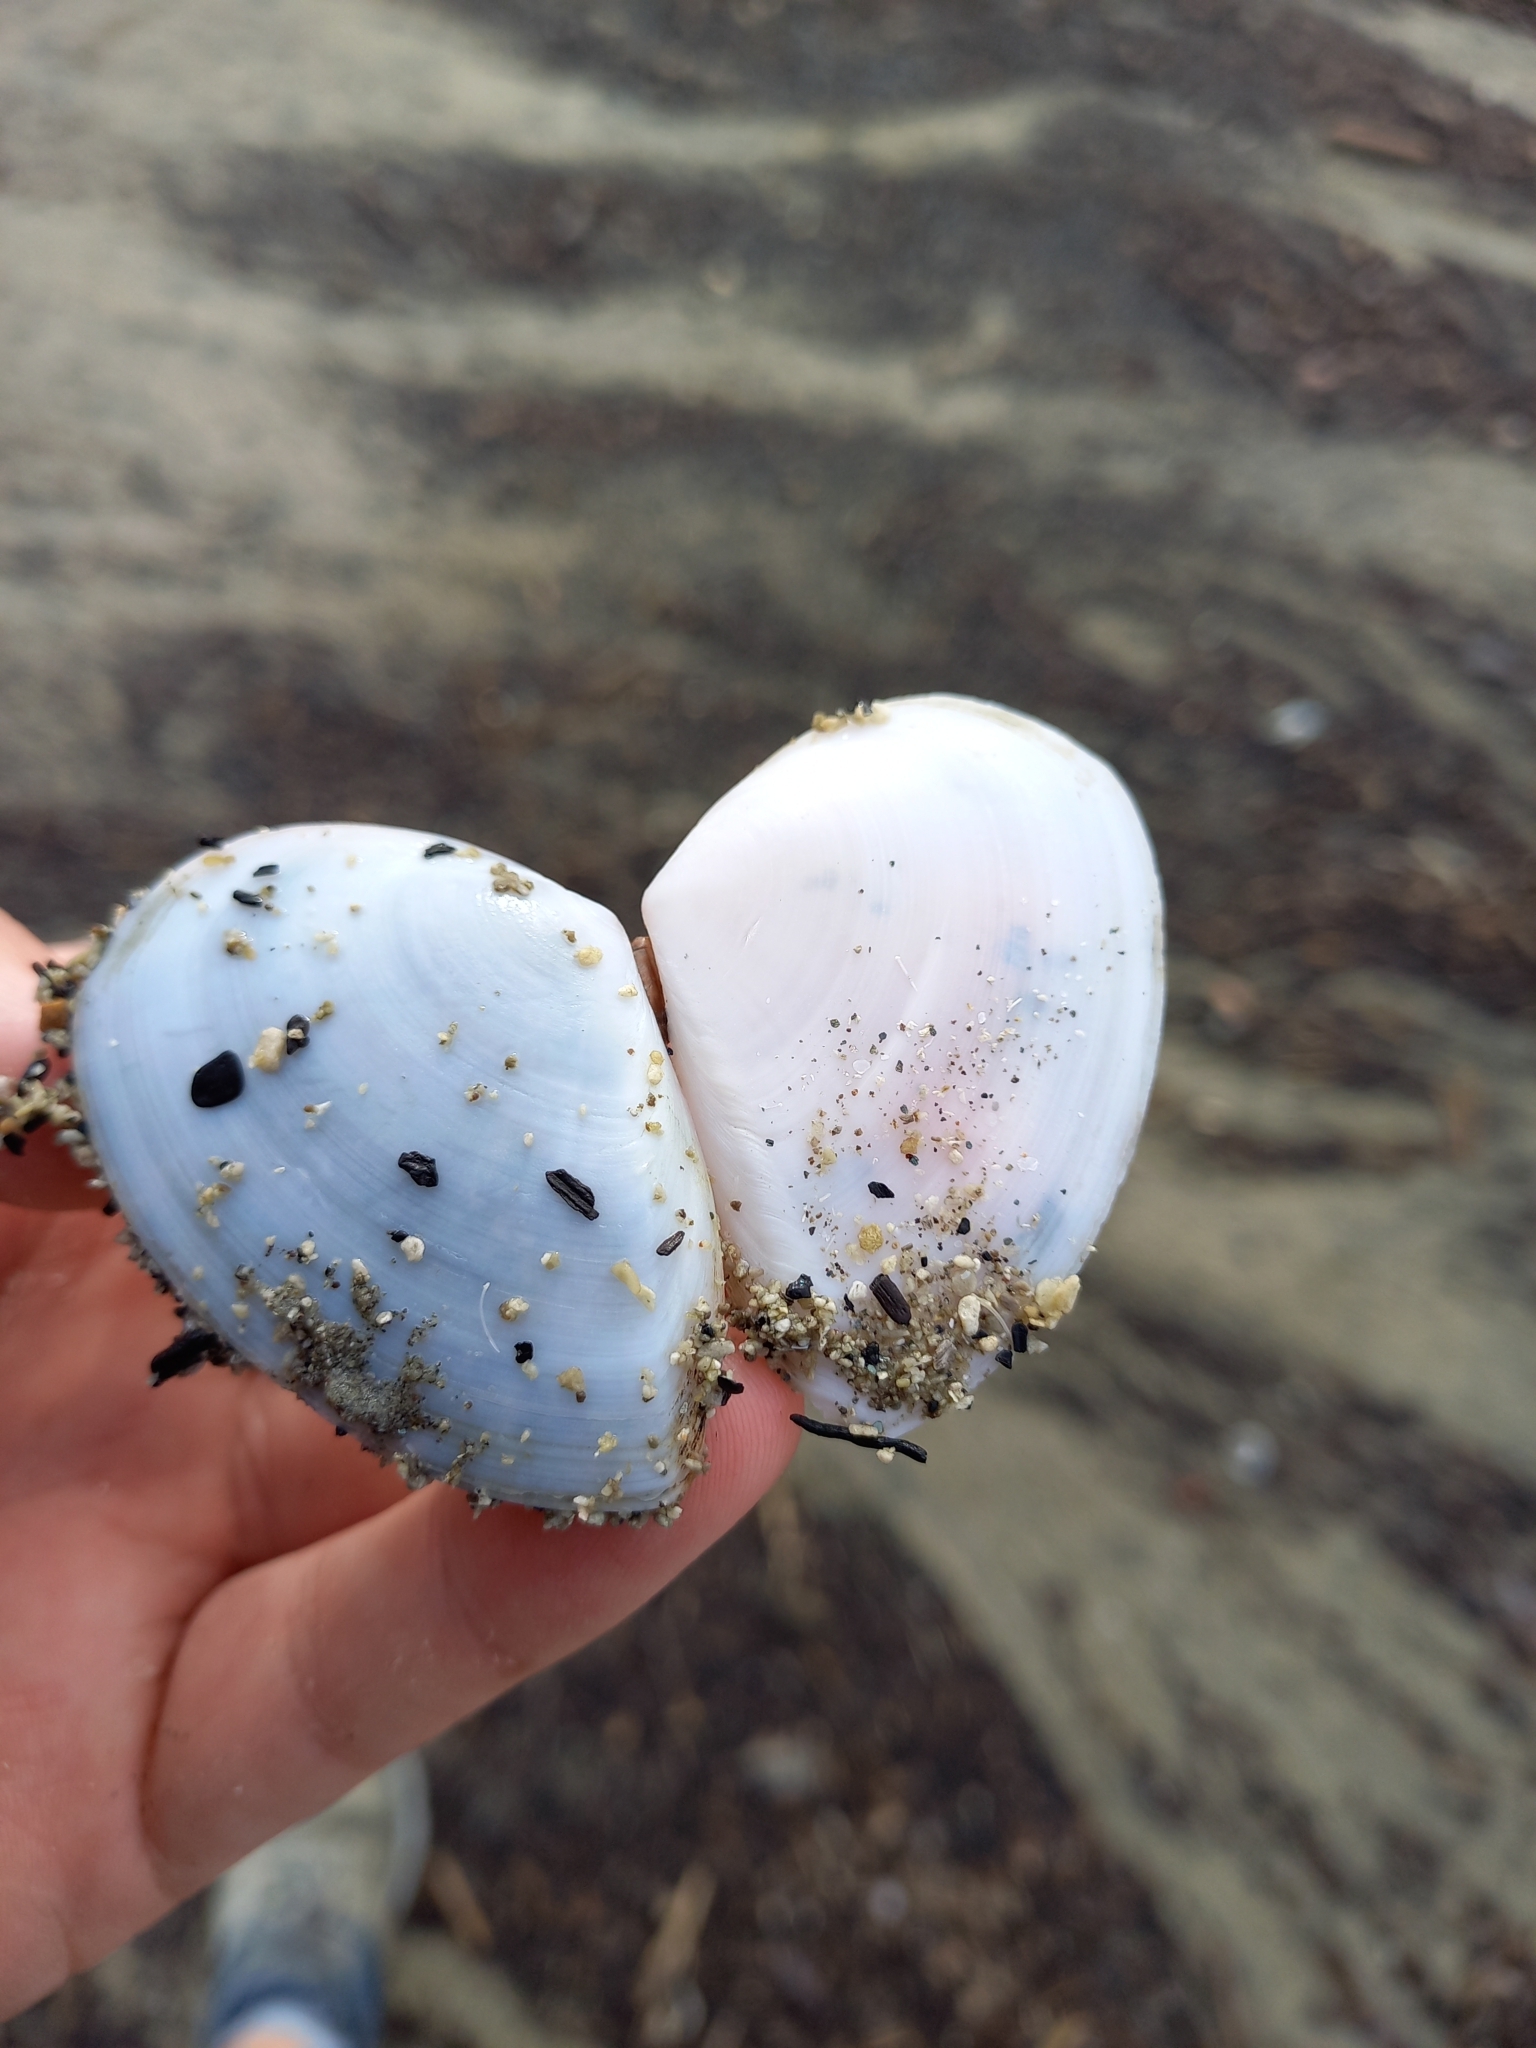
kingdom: Animalia
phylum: Mollusca
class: Bivalvia
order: Cardiida
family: Tellinidae
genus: Bartschicoma
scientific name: Bartschicoma gaimardi
